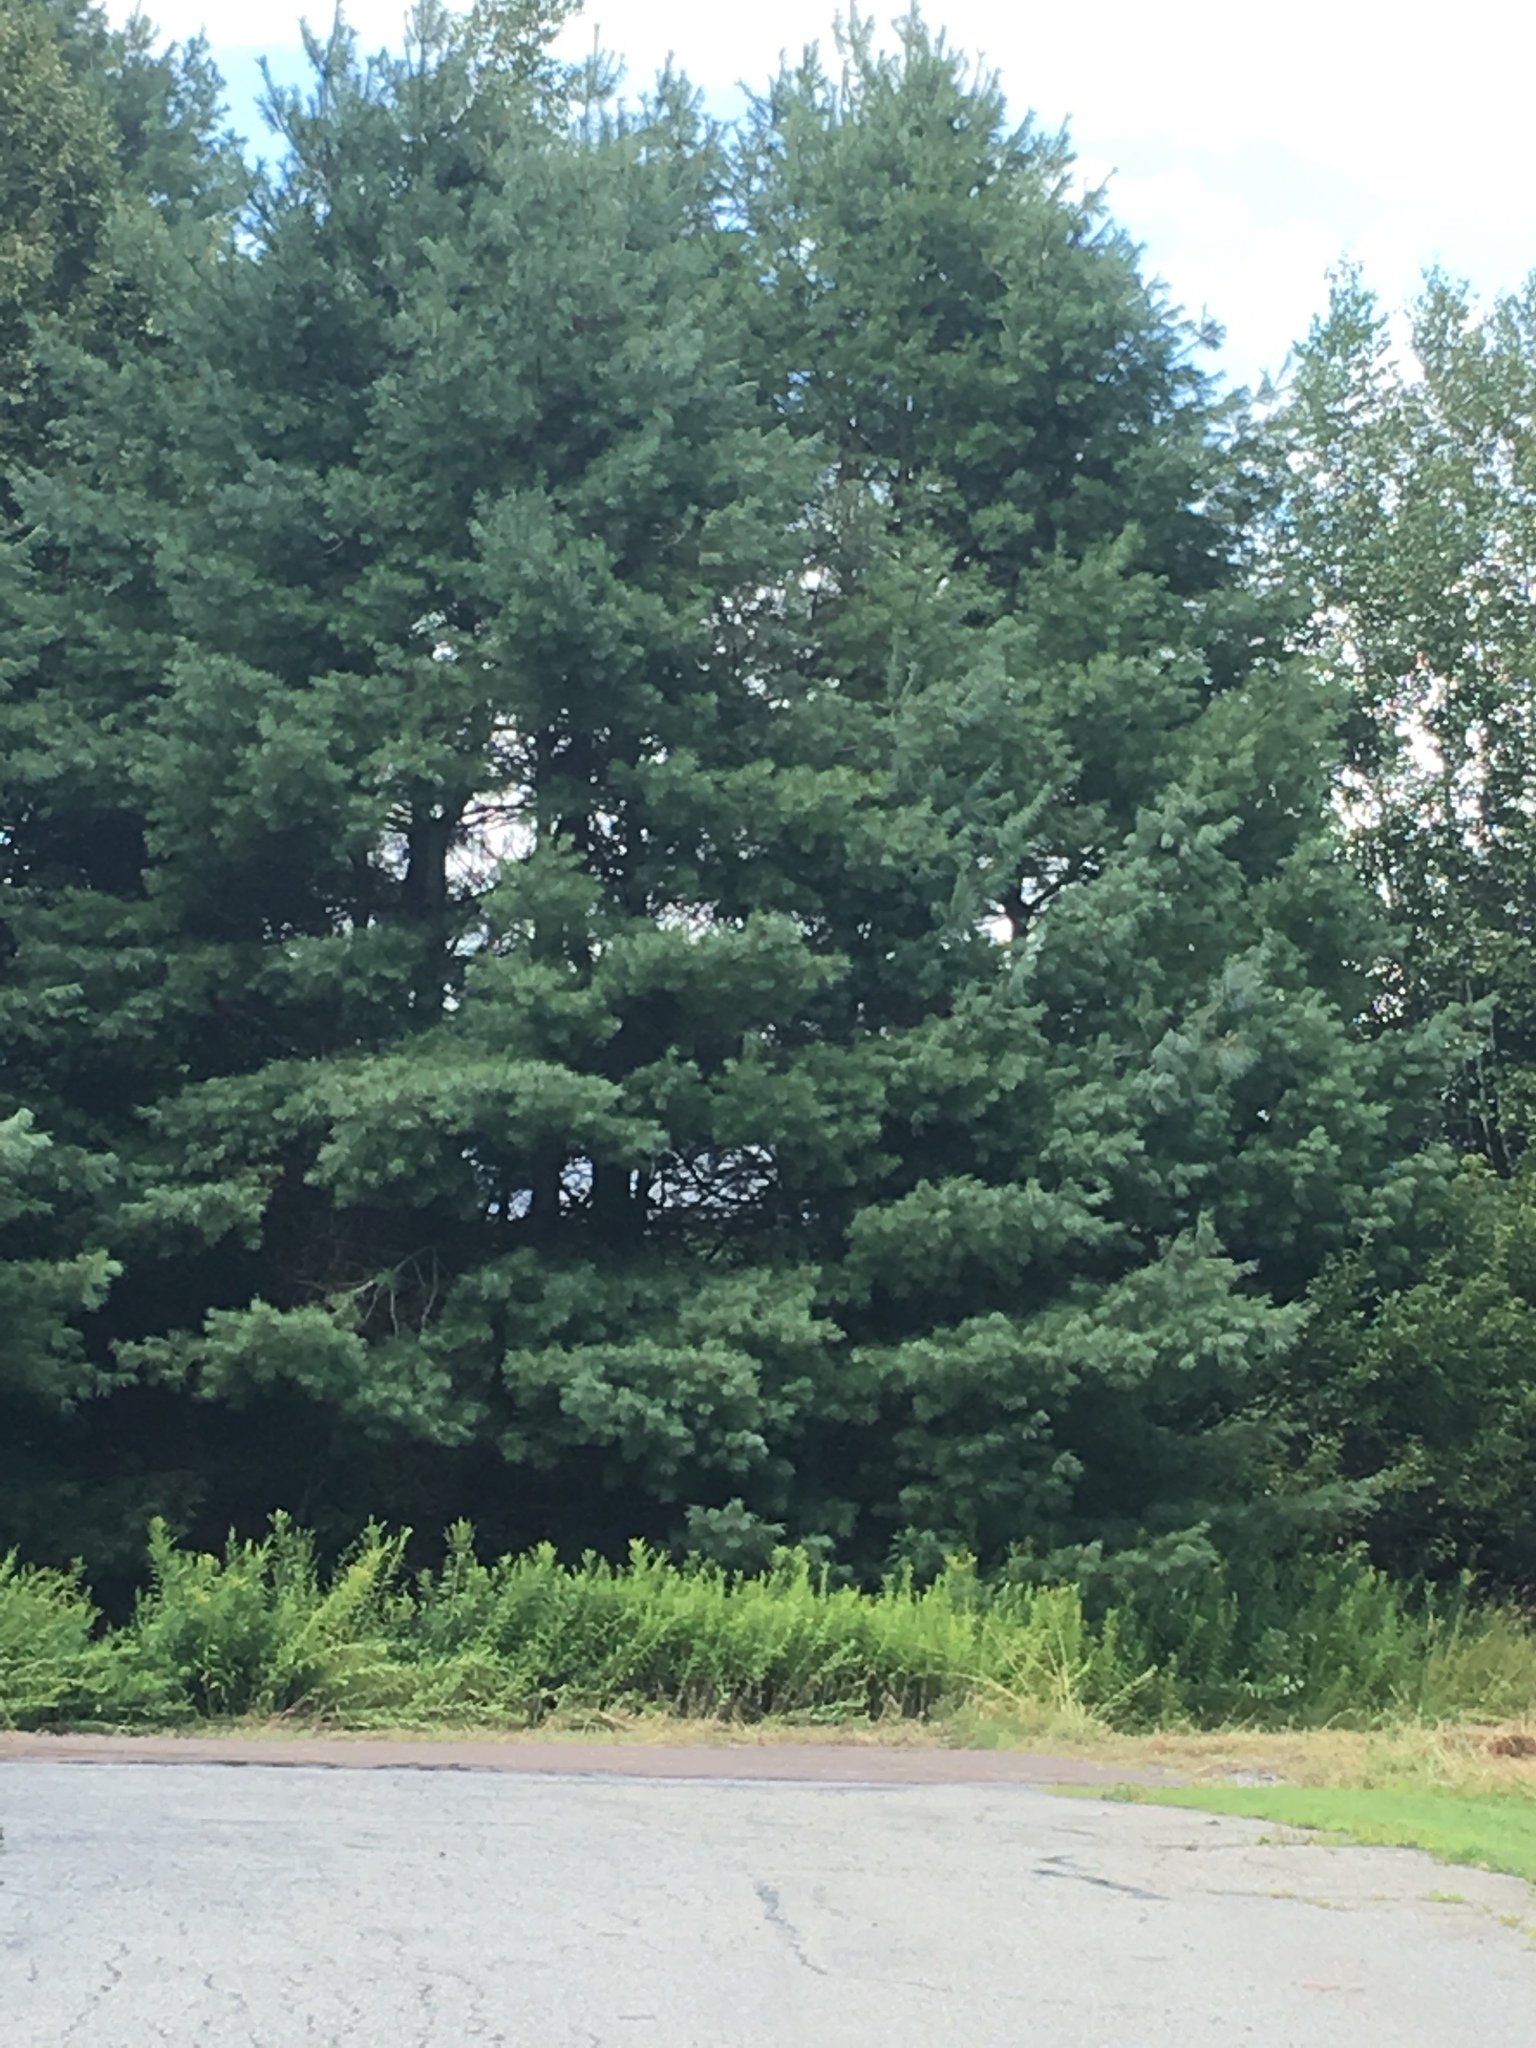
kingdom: Plantae
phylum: Tracheophyta
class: Pinopsida
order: Pinales
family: Pinaceae
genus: Pinus
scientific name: Pinus strobus
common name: Weymouth pine
